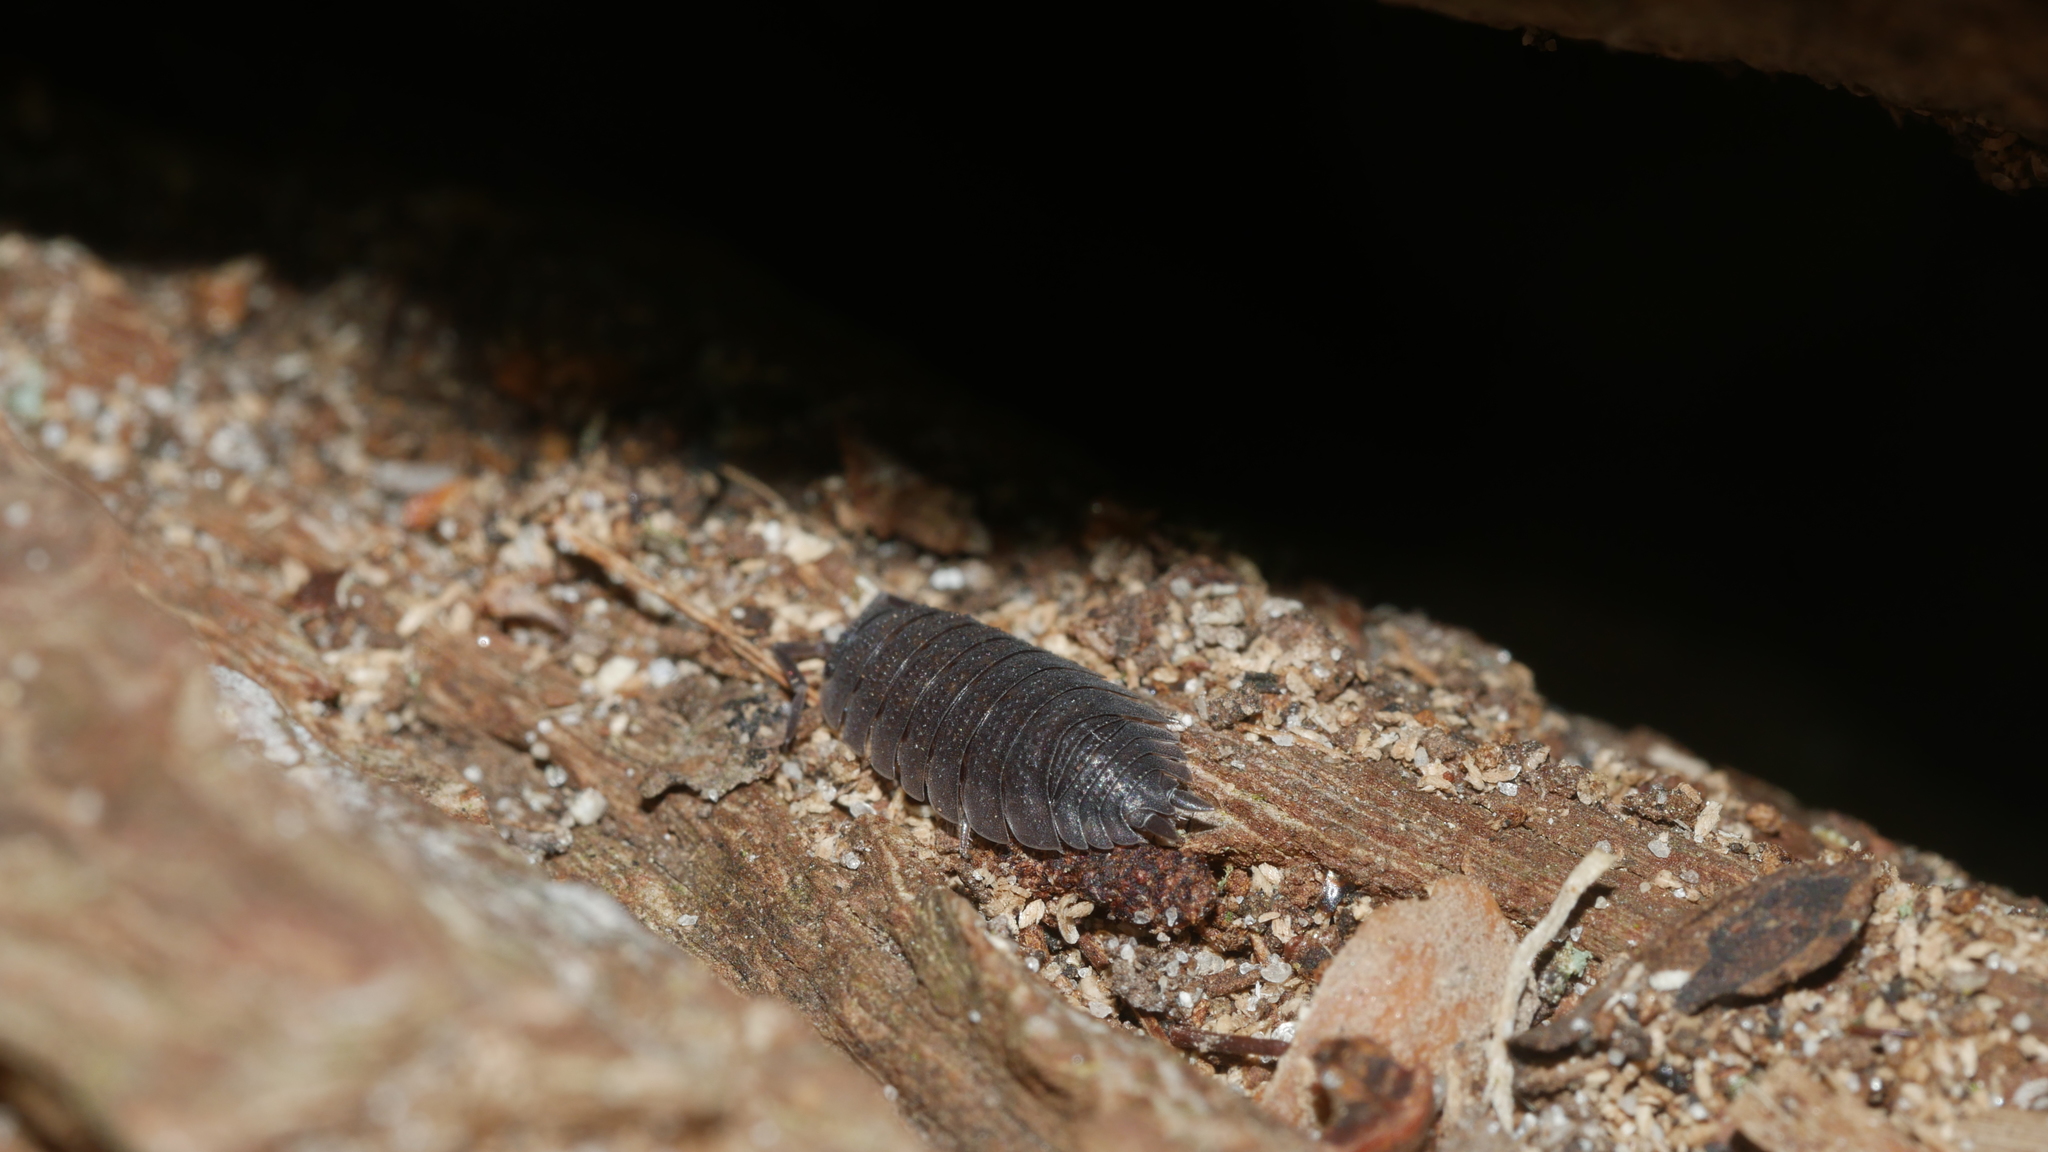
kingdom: Animalia
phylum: Arthropoda
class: Malacostraca
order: Isopoda
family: Porcellionidae
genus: Porcellio
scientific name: Porcellio scaber
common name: Common rough woodlouse
